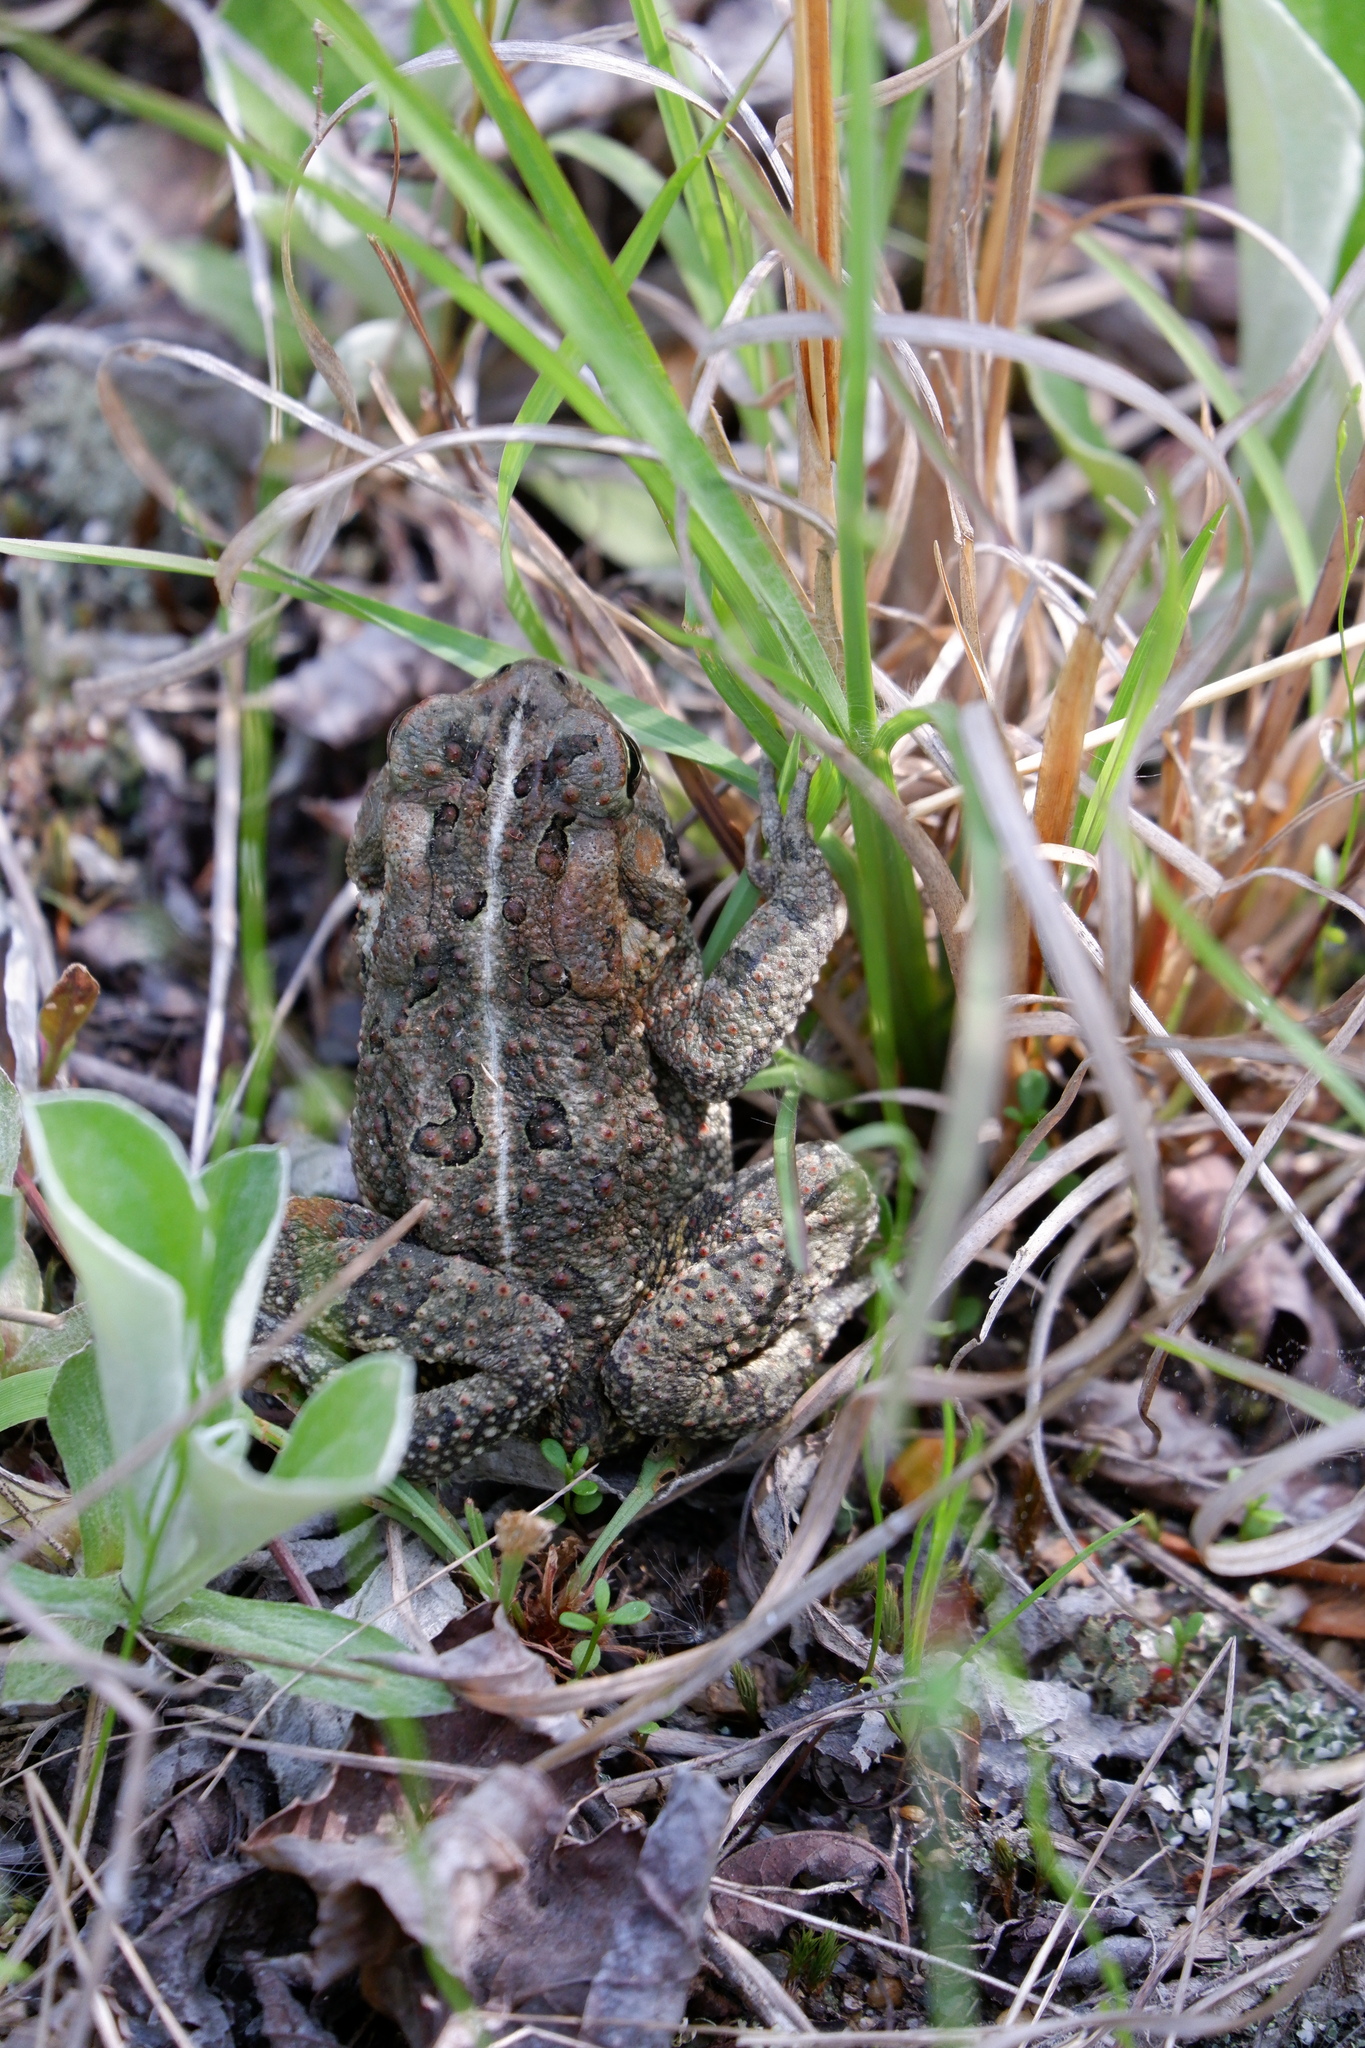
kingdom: Animalia
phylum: Chordata
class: Amphibia
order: Anura
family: Bufonidae
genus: Anaxyrus
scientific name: Anaxyrus fowleri
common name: Fowler's toad
